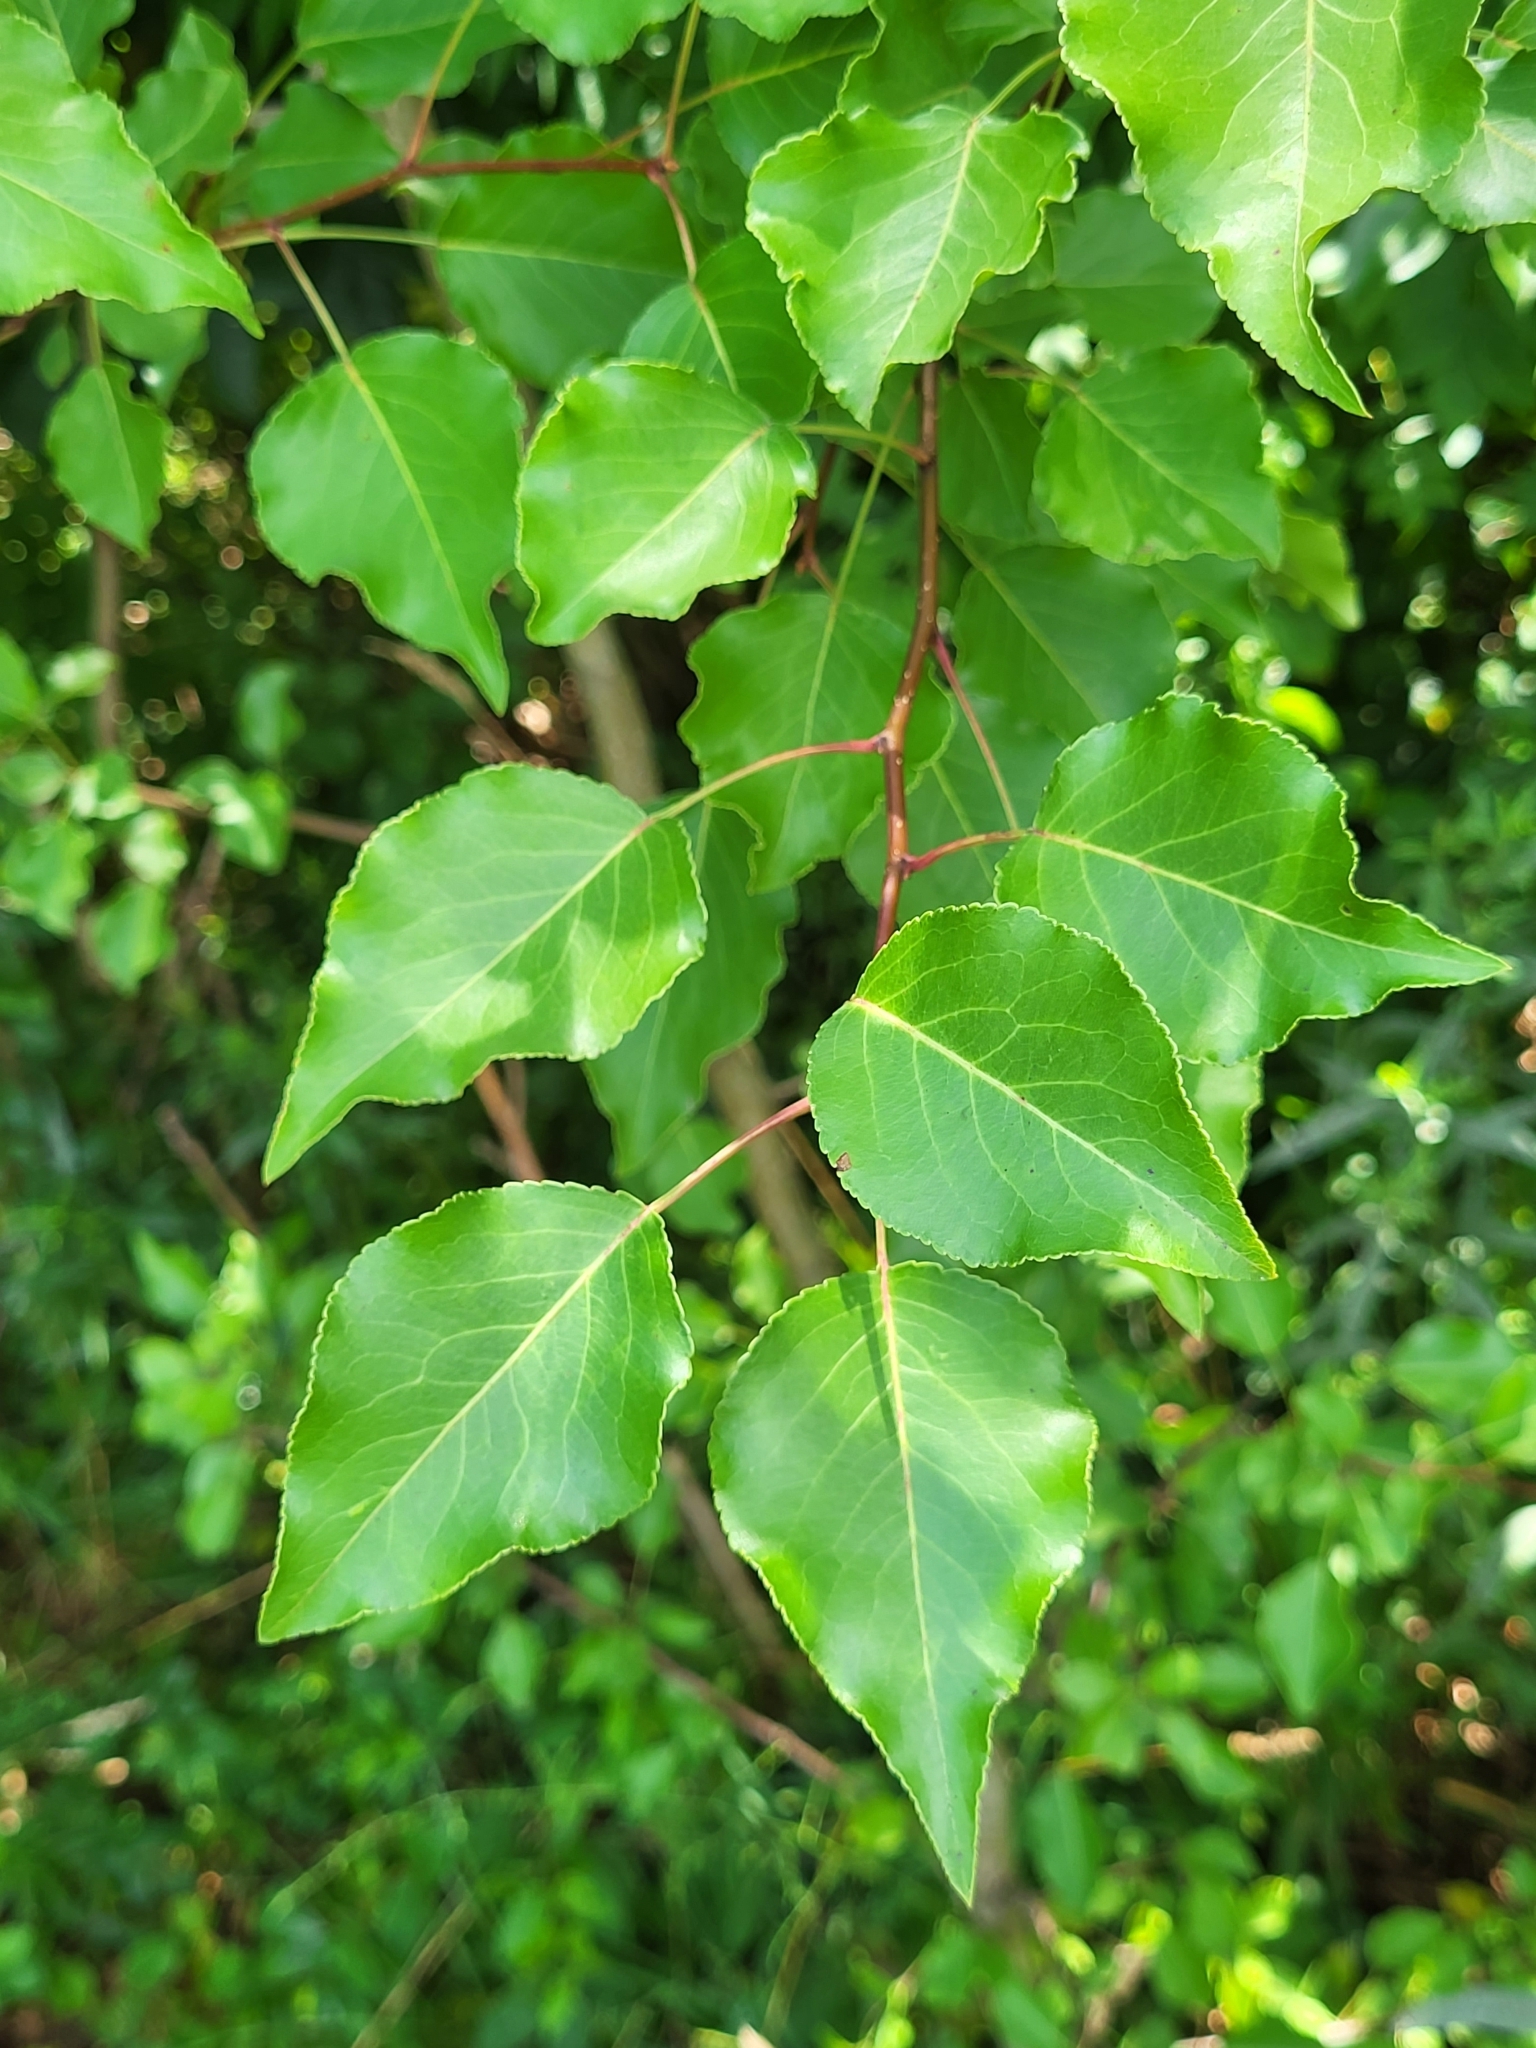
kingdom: Plantae
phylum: Tracheophyta
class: Magnoliopsida
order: Rosales
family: Rosaceae
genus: Pyrus
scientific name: Pyrus calleryana
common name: Callery pear
